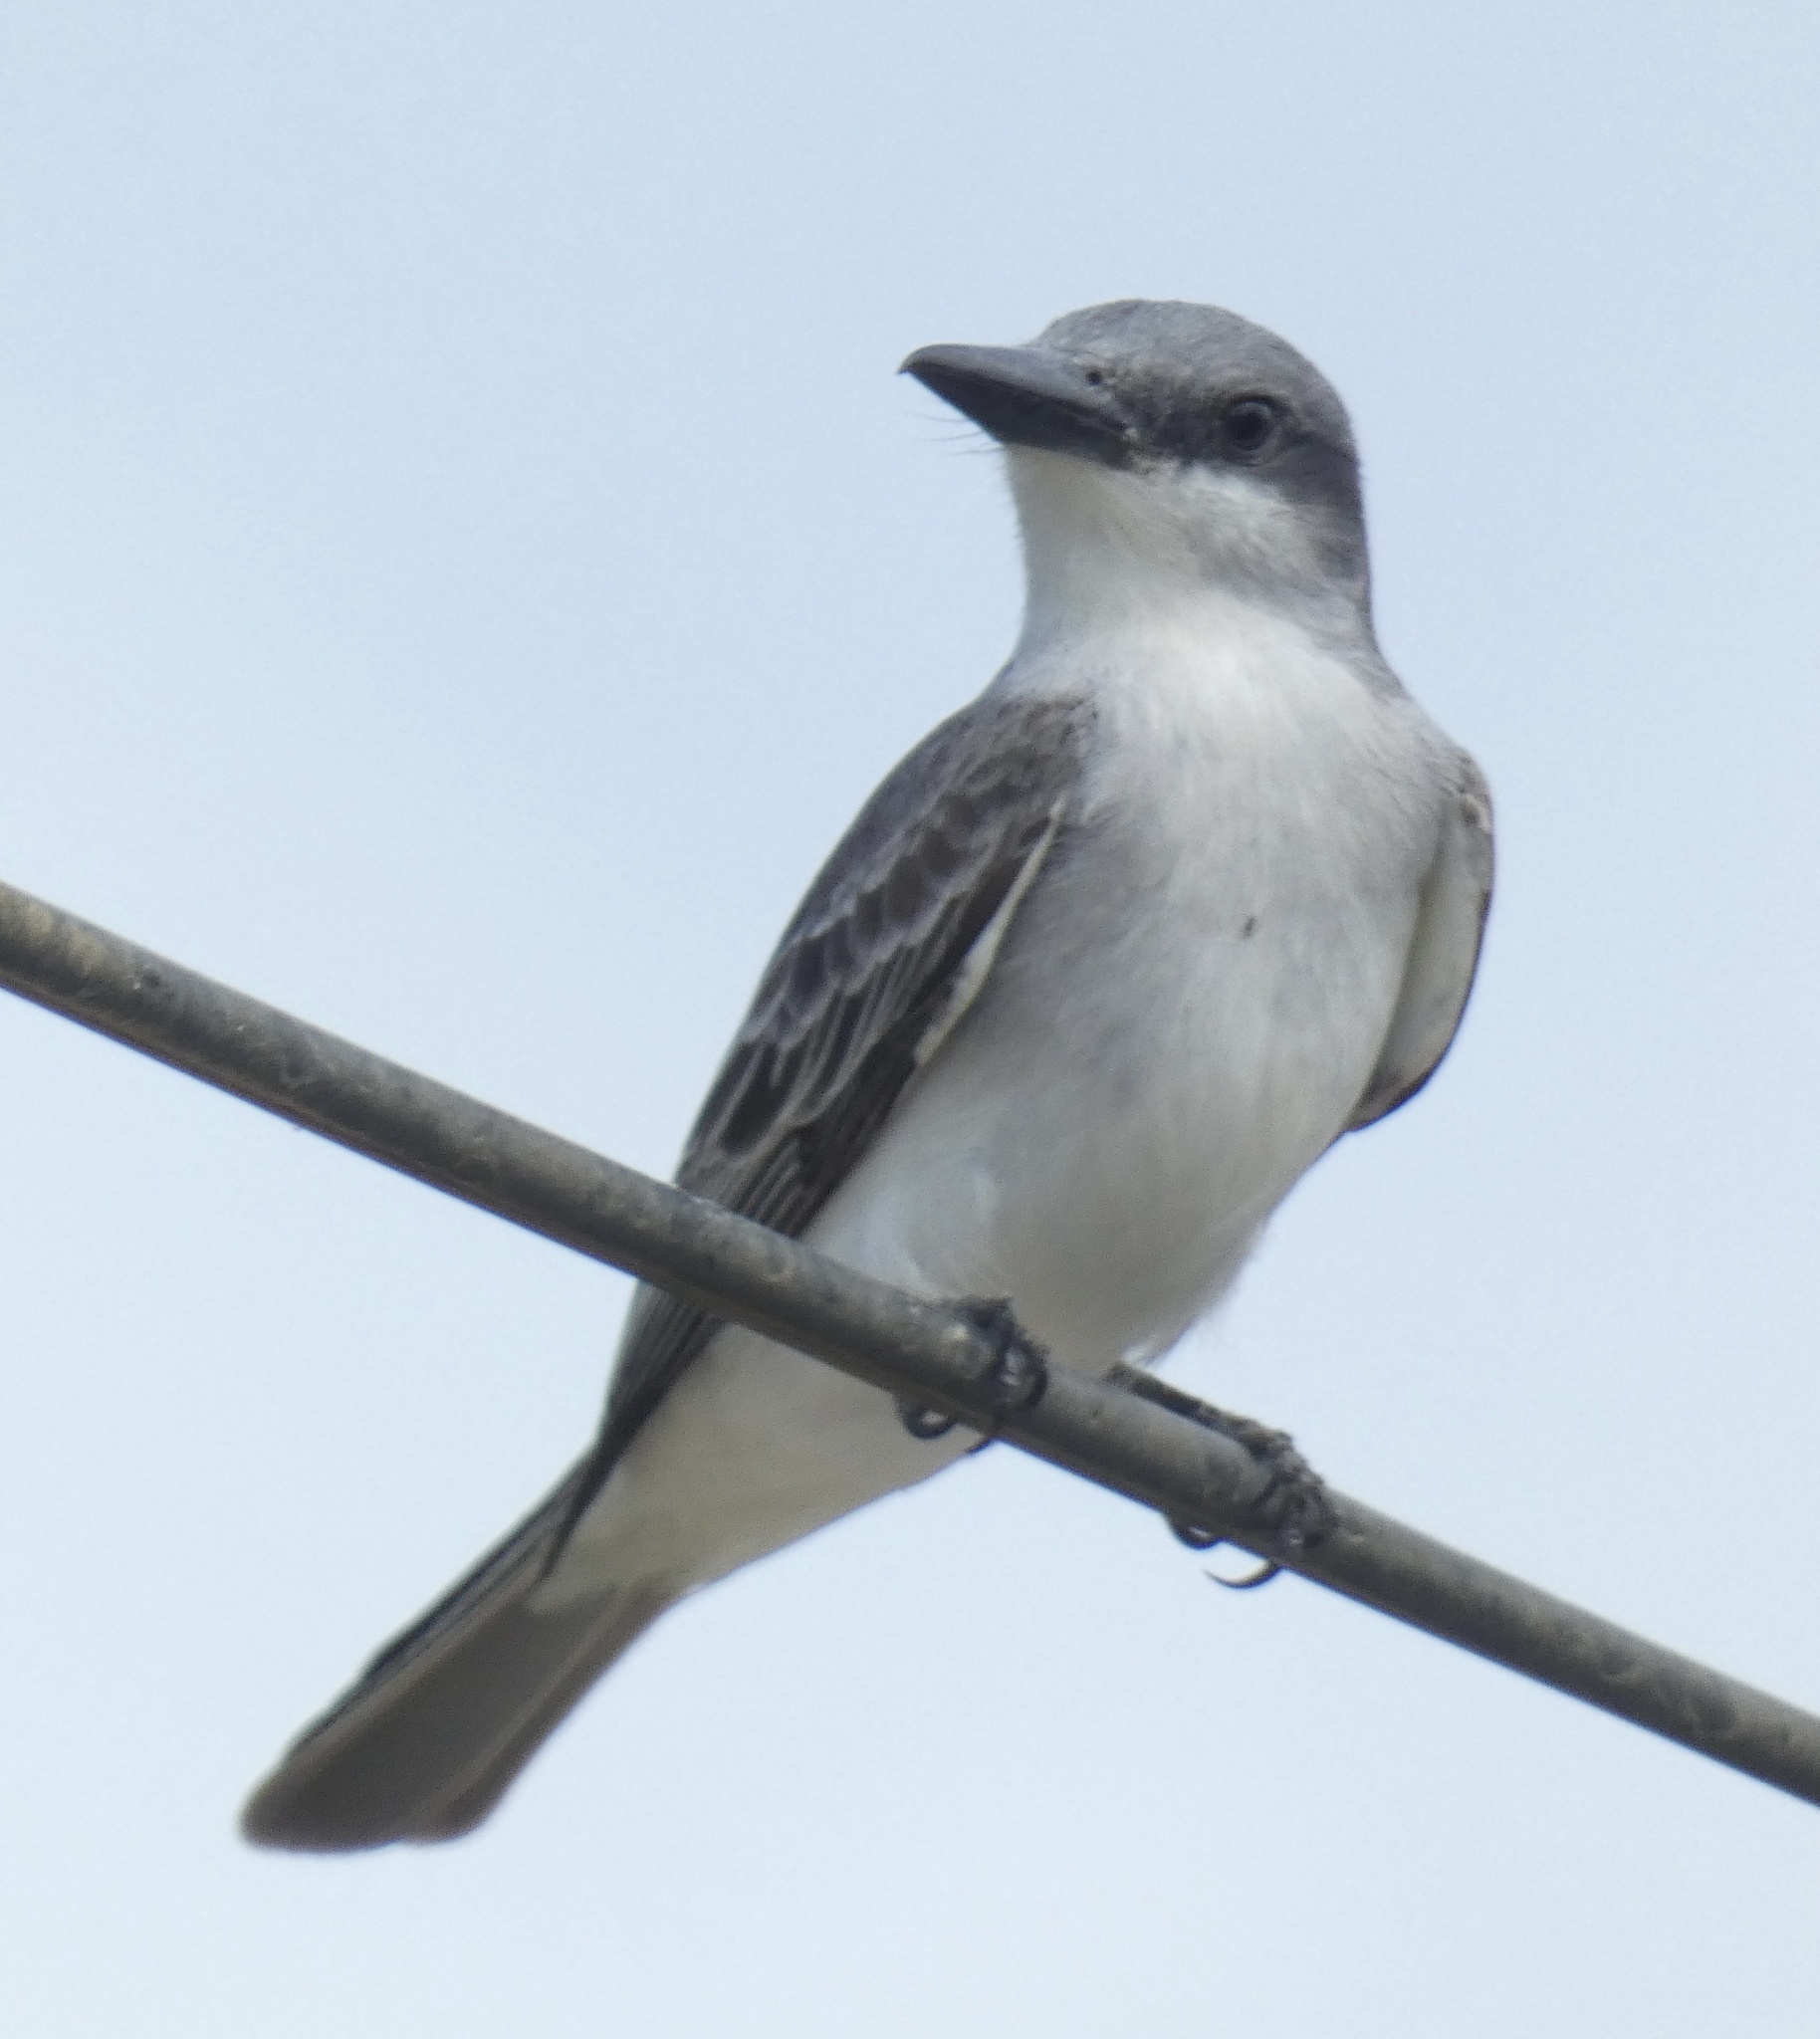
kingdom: Animalia
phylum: Chordata
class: Aves
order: Passeriformes
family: Tyrannidae
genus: Tyrannus
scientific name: Tyrannus dominicensis
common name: Gray kingbird
